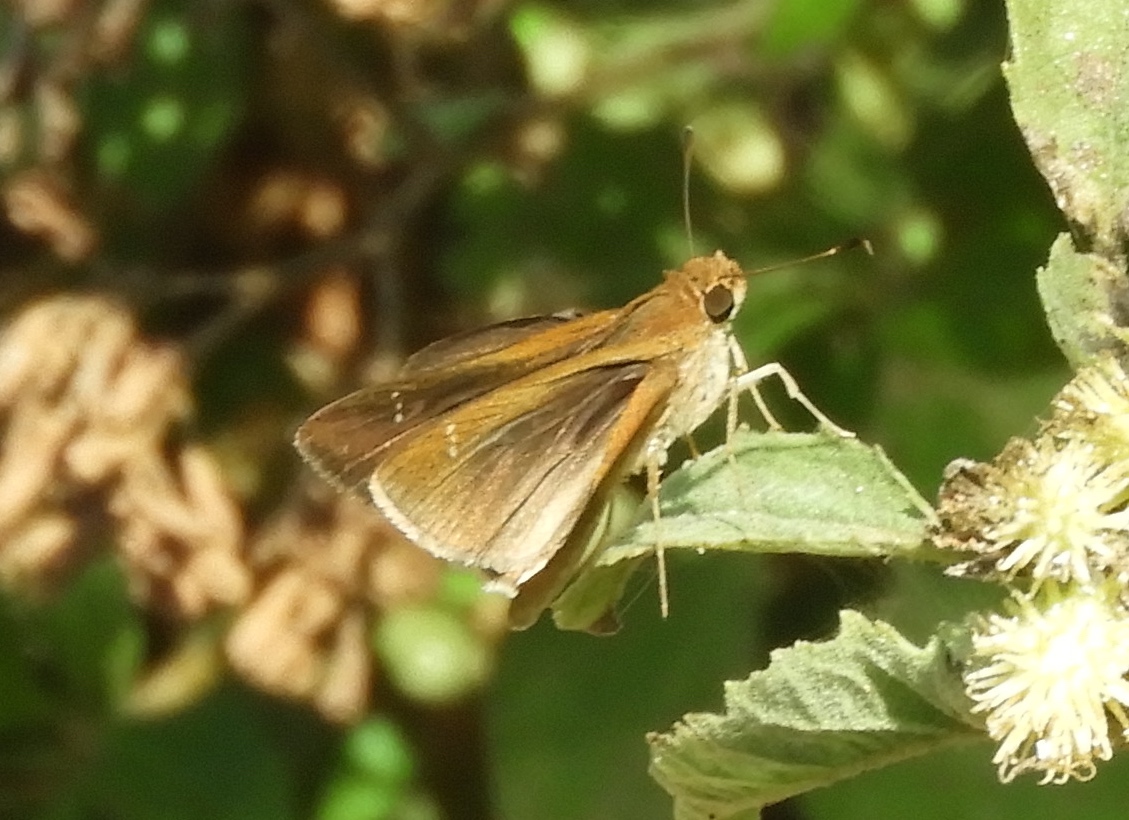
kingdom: Animalia
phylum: Arthropoda
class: Insecta
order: Lepidoptera
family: Hesperiidae
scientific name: Hesperiidae
